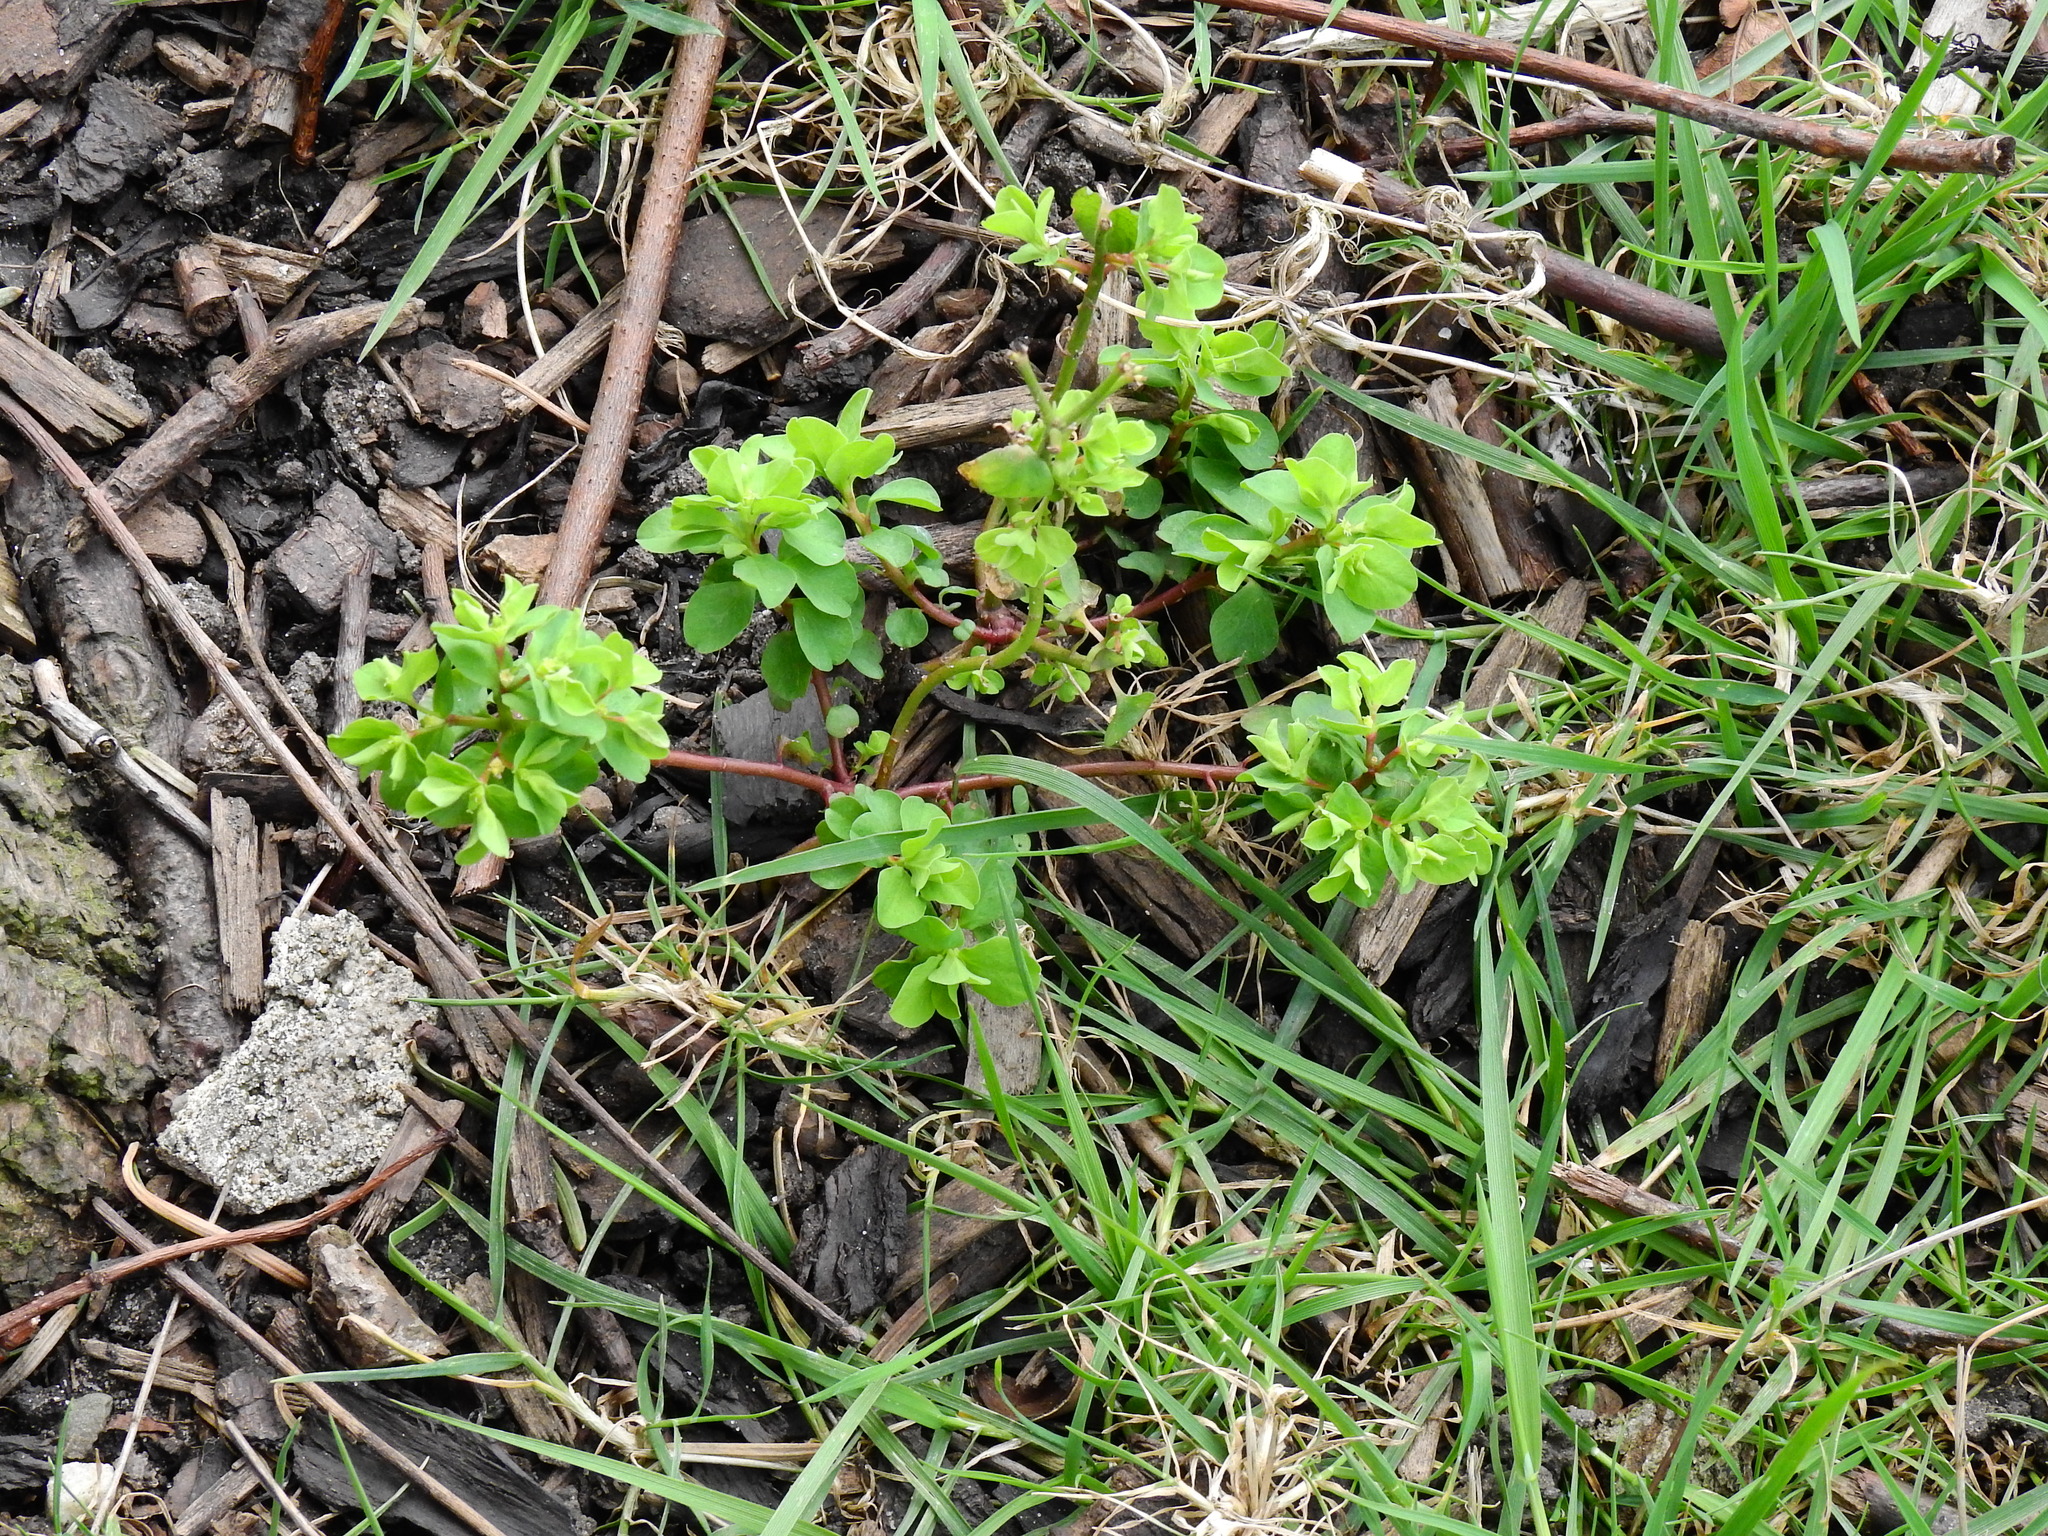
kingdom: Plantae
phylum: Tracheophyta
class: Magnoliopsida
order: Malpighiales
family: Euphorbiaceae
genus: Euphorbia
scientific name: Euphorbia peplus
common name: Petty spurge
